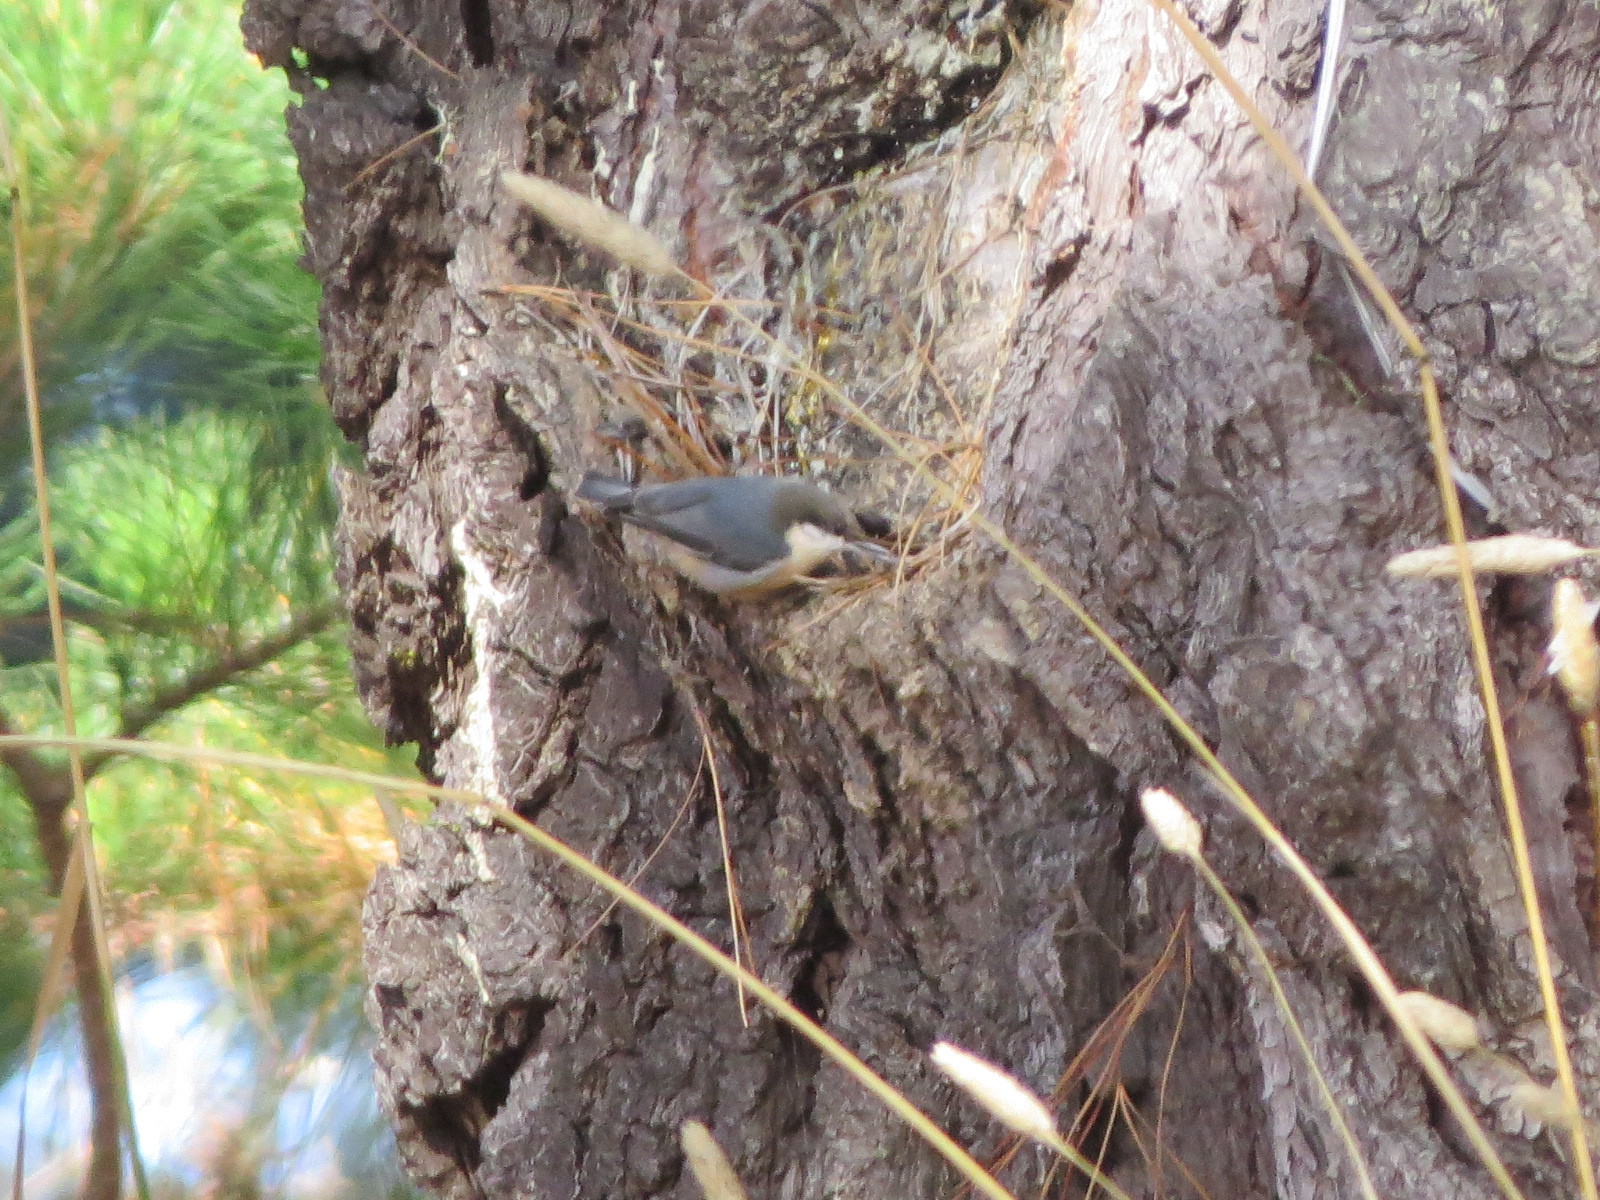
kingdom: Animalia
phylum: Chordata
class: Aves
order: Passeriformes
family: Sittidae
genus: Sitta
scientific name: Sitta pygmaea
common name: Pygmy nuthatch
